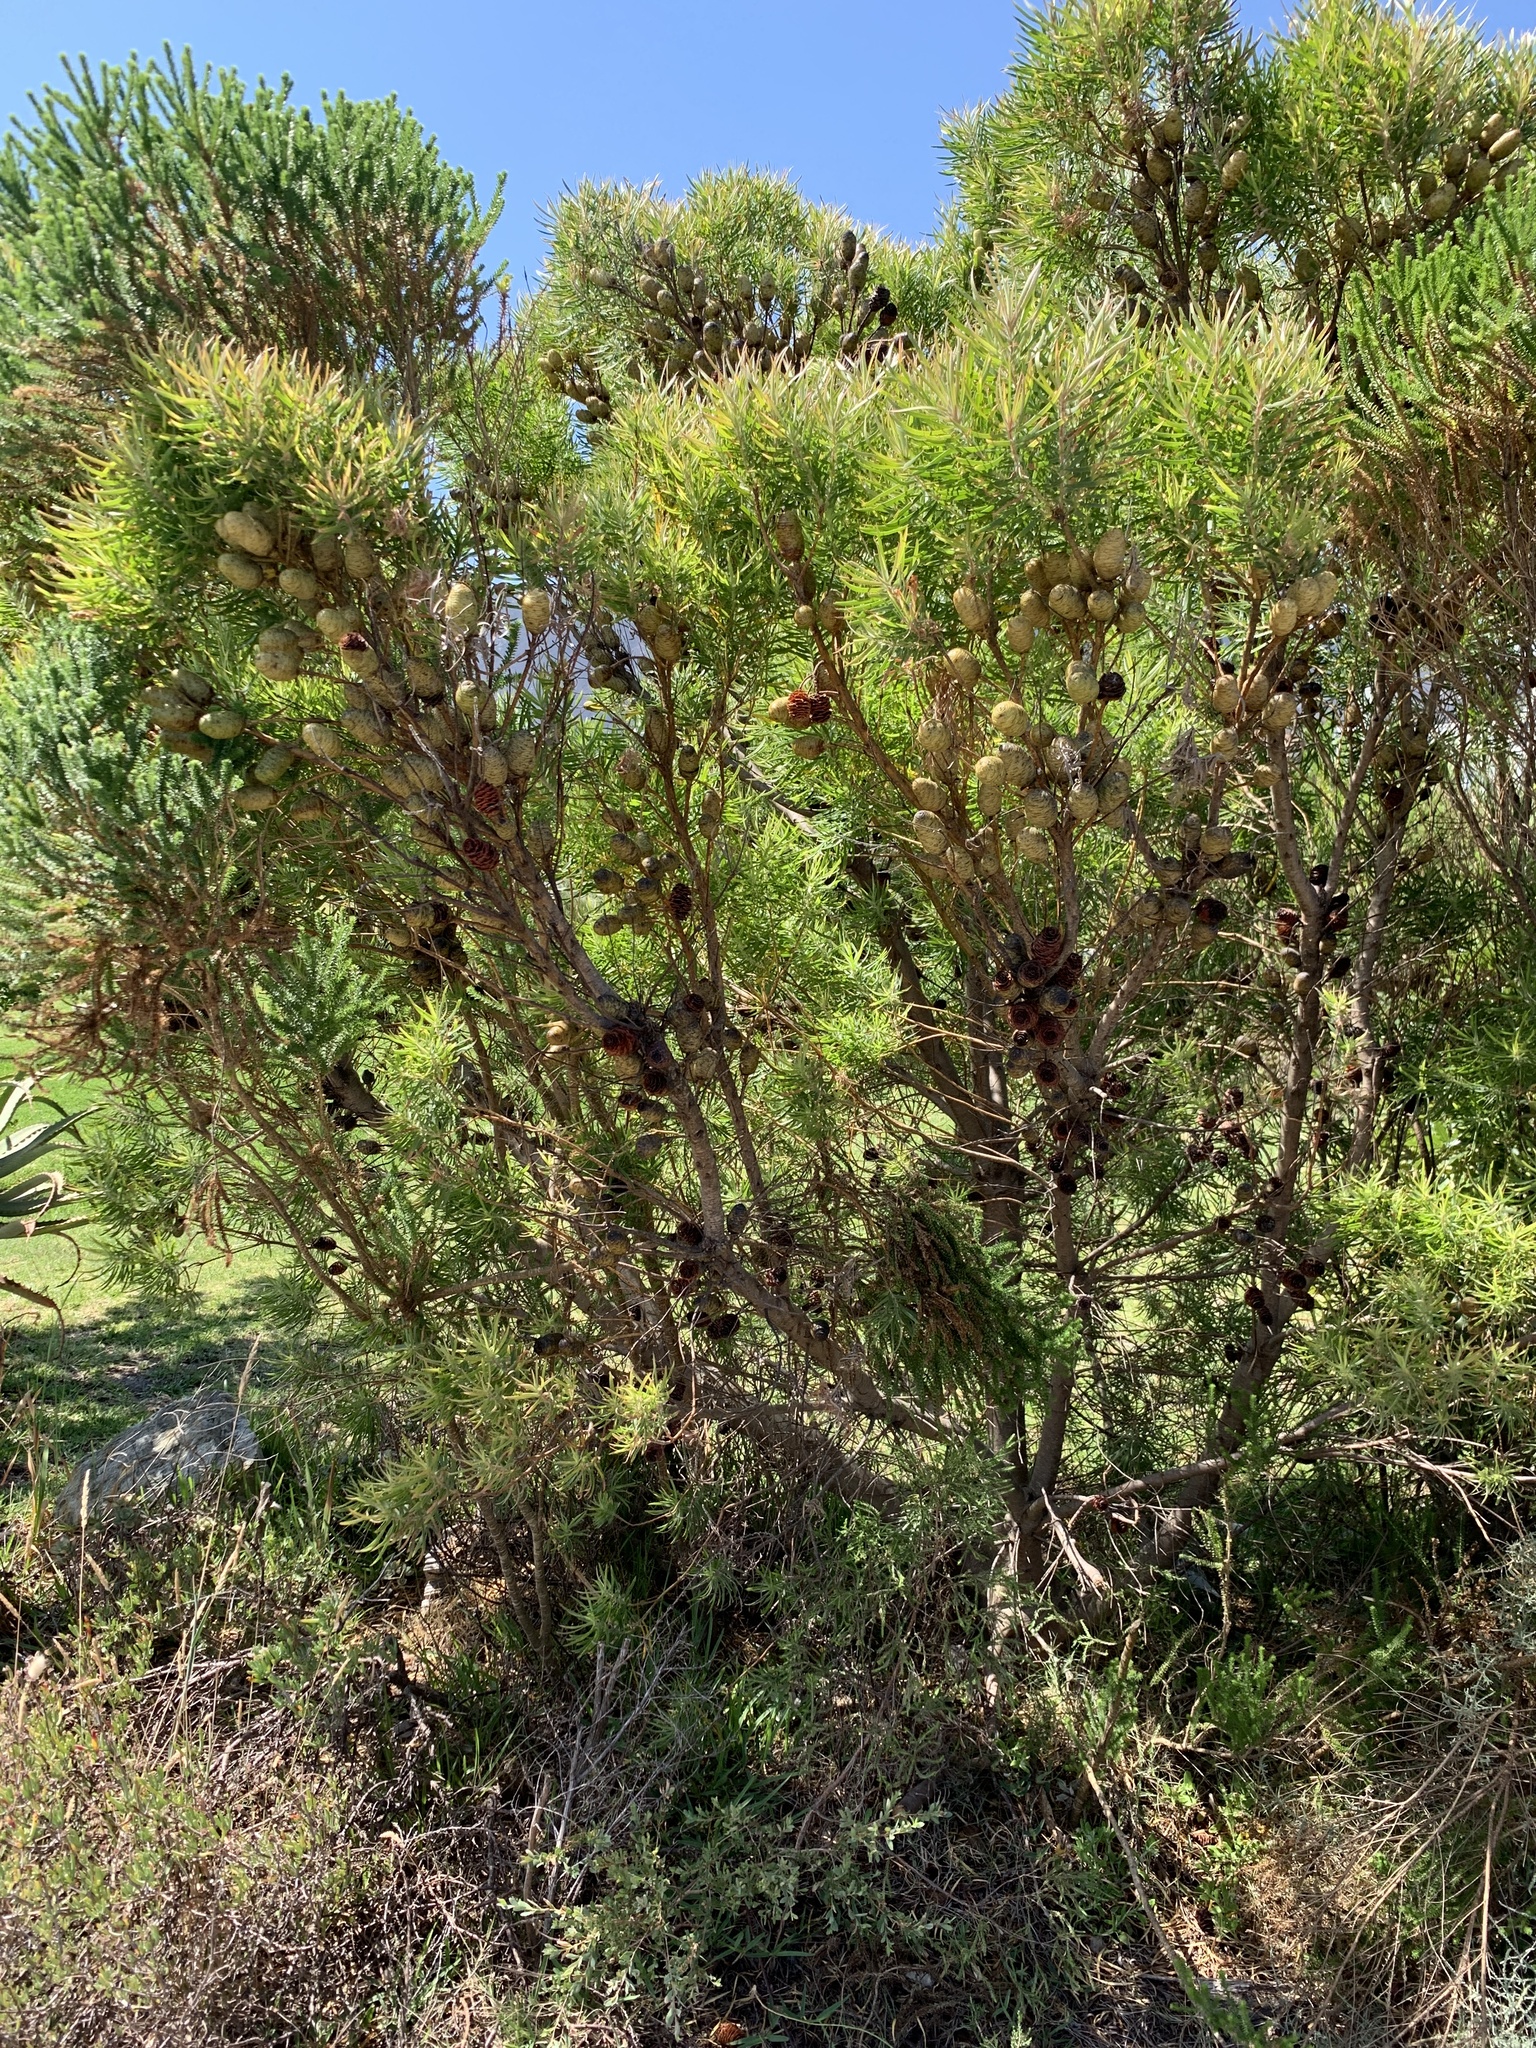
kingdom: Plantae
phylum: Tracheophyta
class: Magnoliopsida
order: Proteales
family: Proteaceae
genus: Leucadendron
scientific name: Leucadendron salicifolium
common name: Common stream conebush
